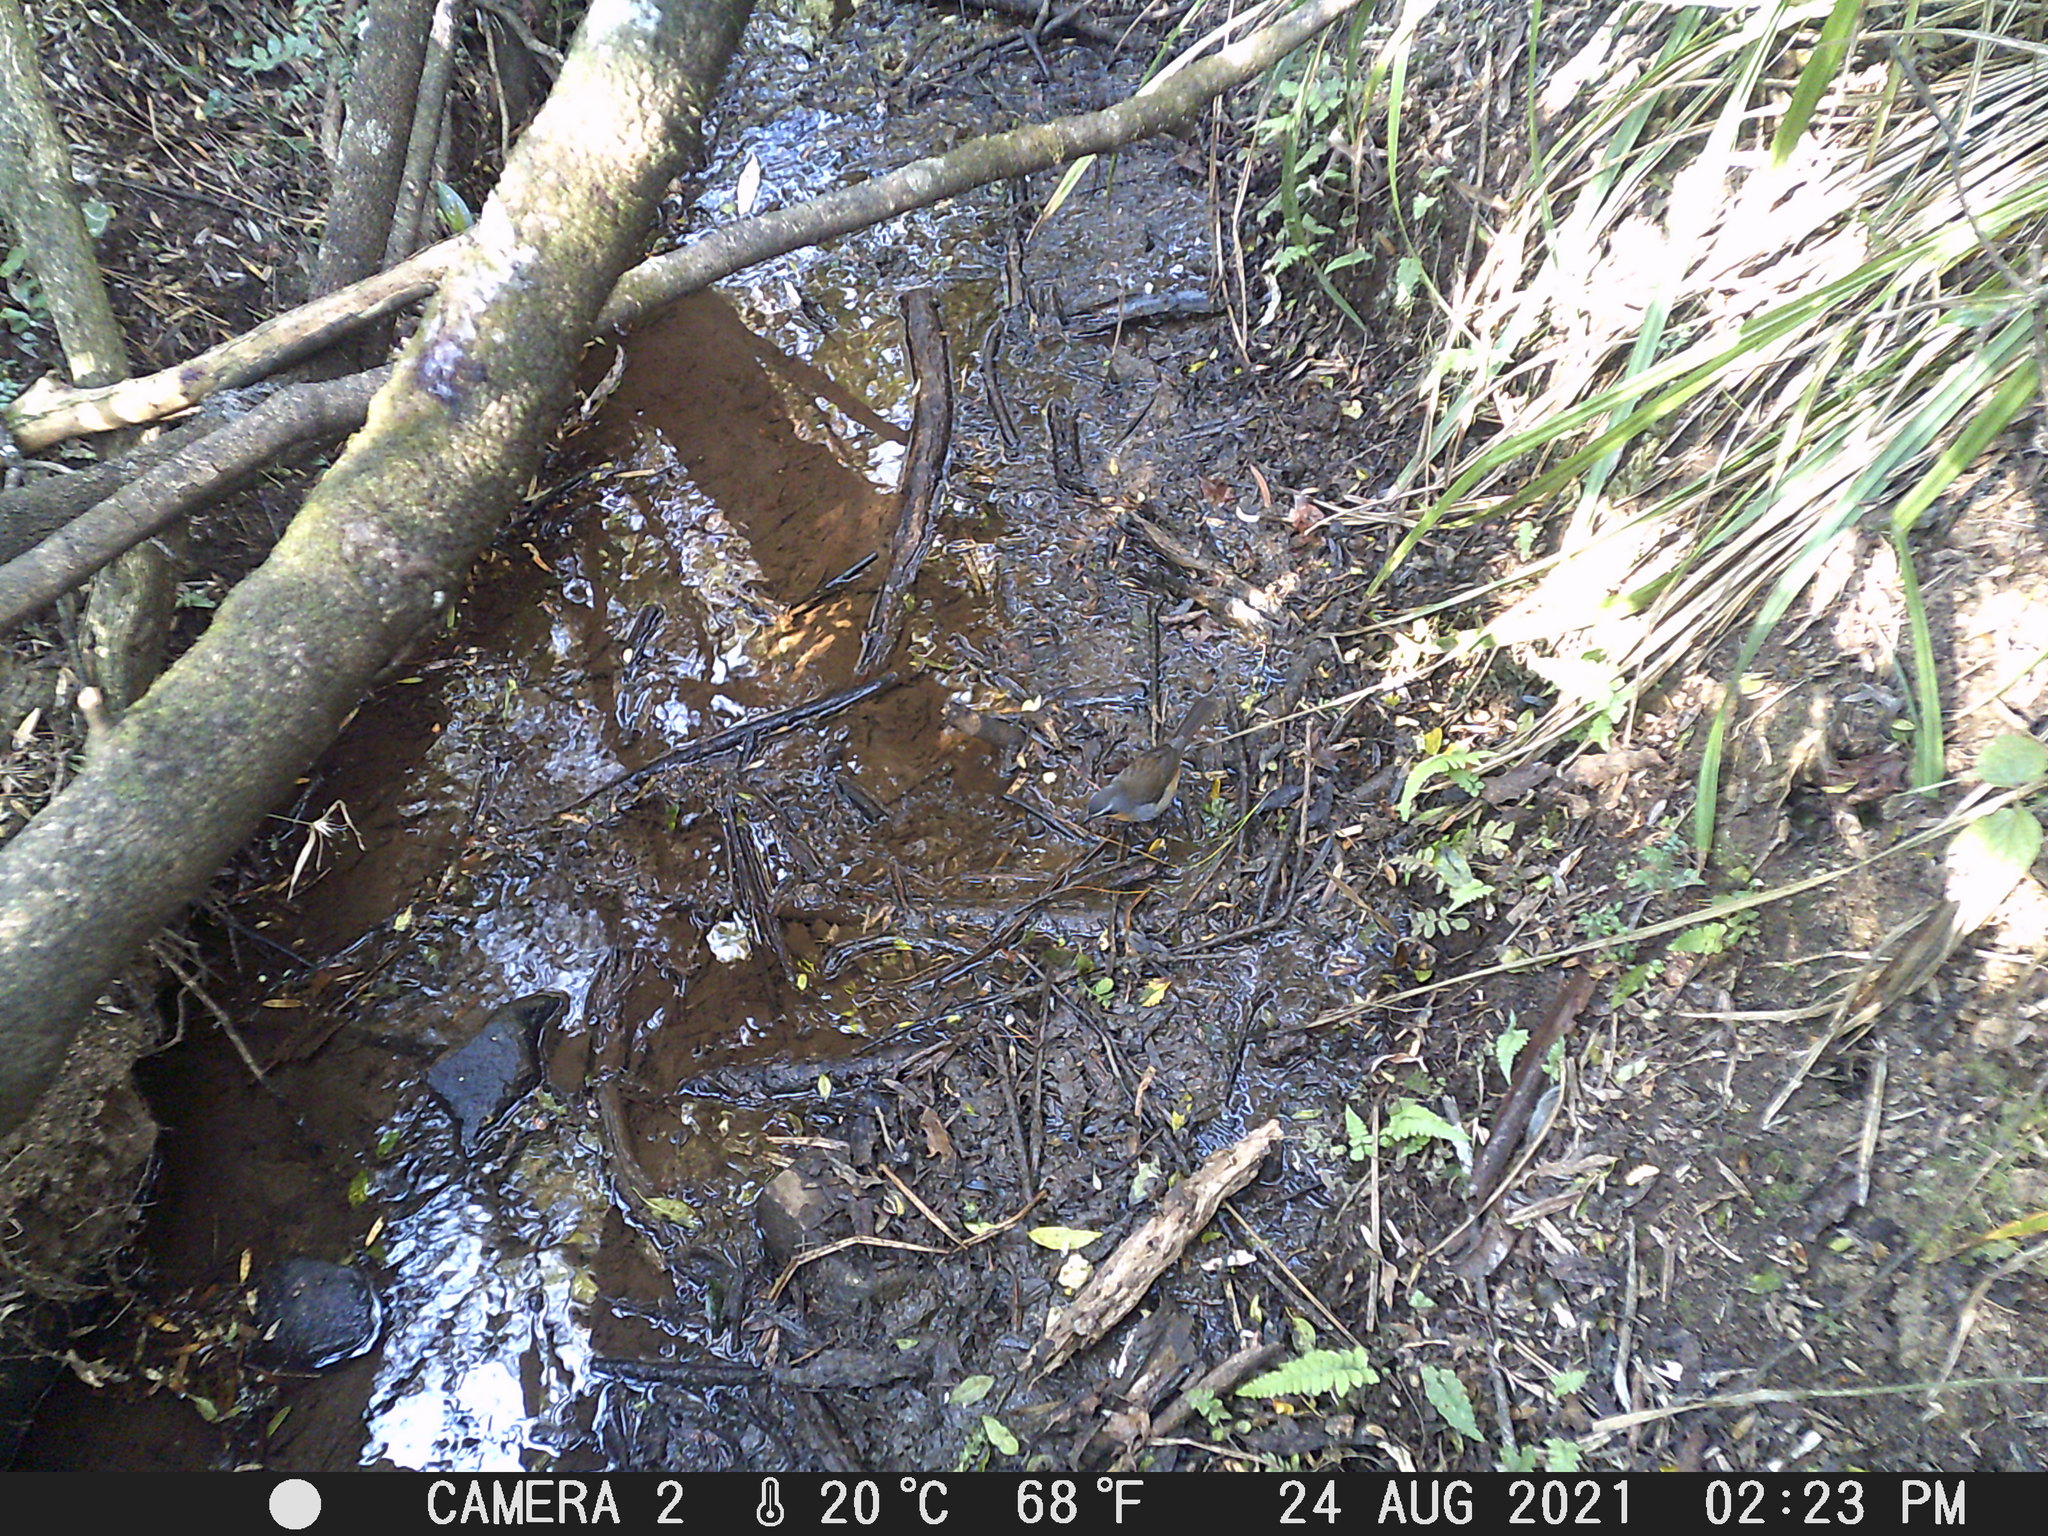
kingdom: Animalia
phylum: Chordata
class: Aves
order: Passeriformes
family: Muscicapidae
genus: Cossypha
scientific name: Cossypha caffra
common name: Cape robin-chat
